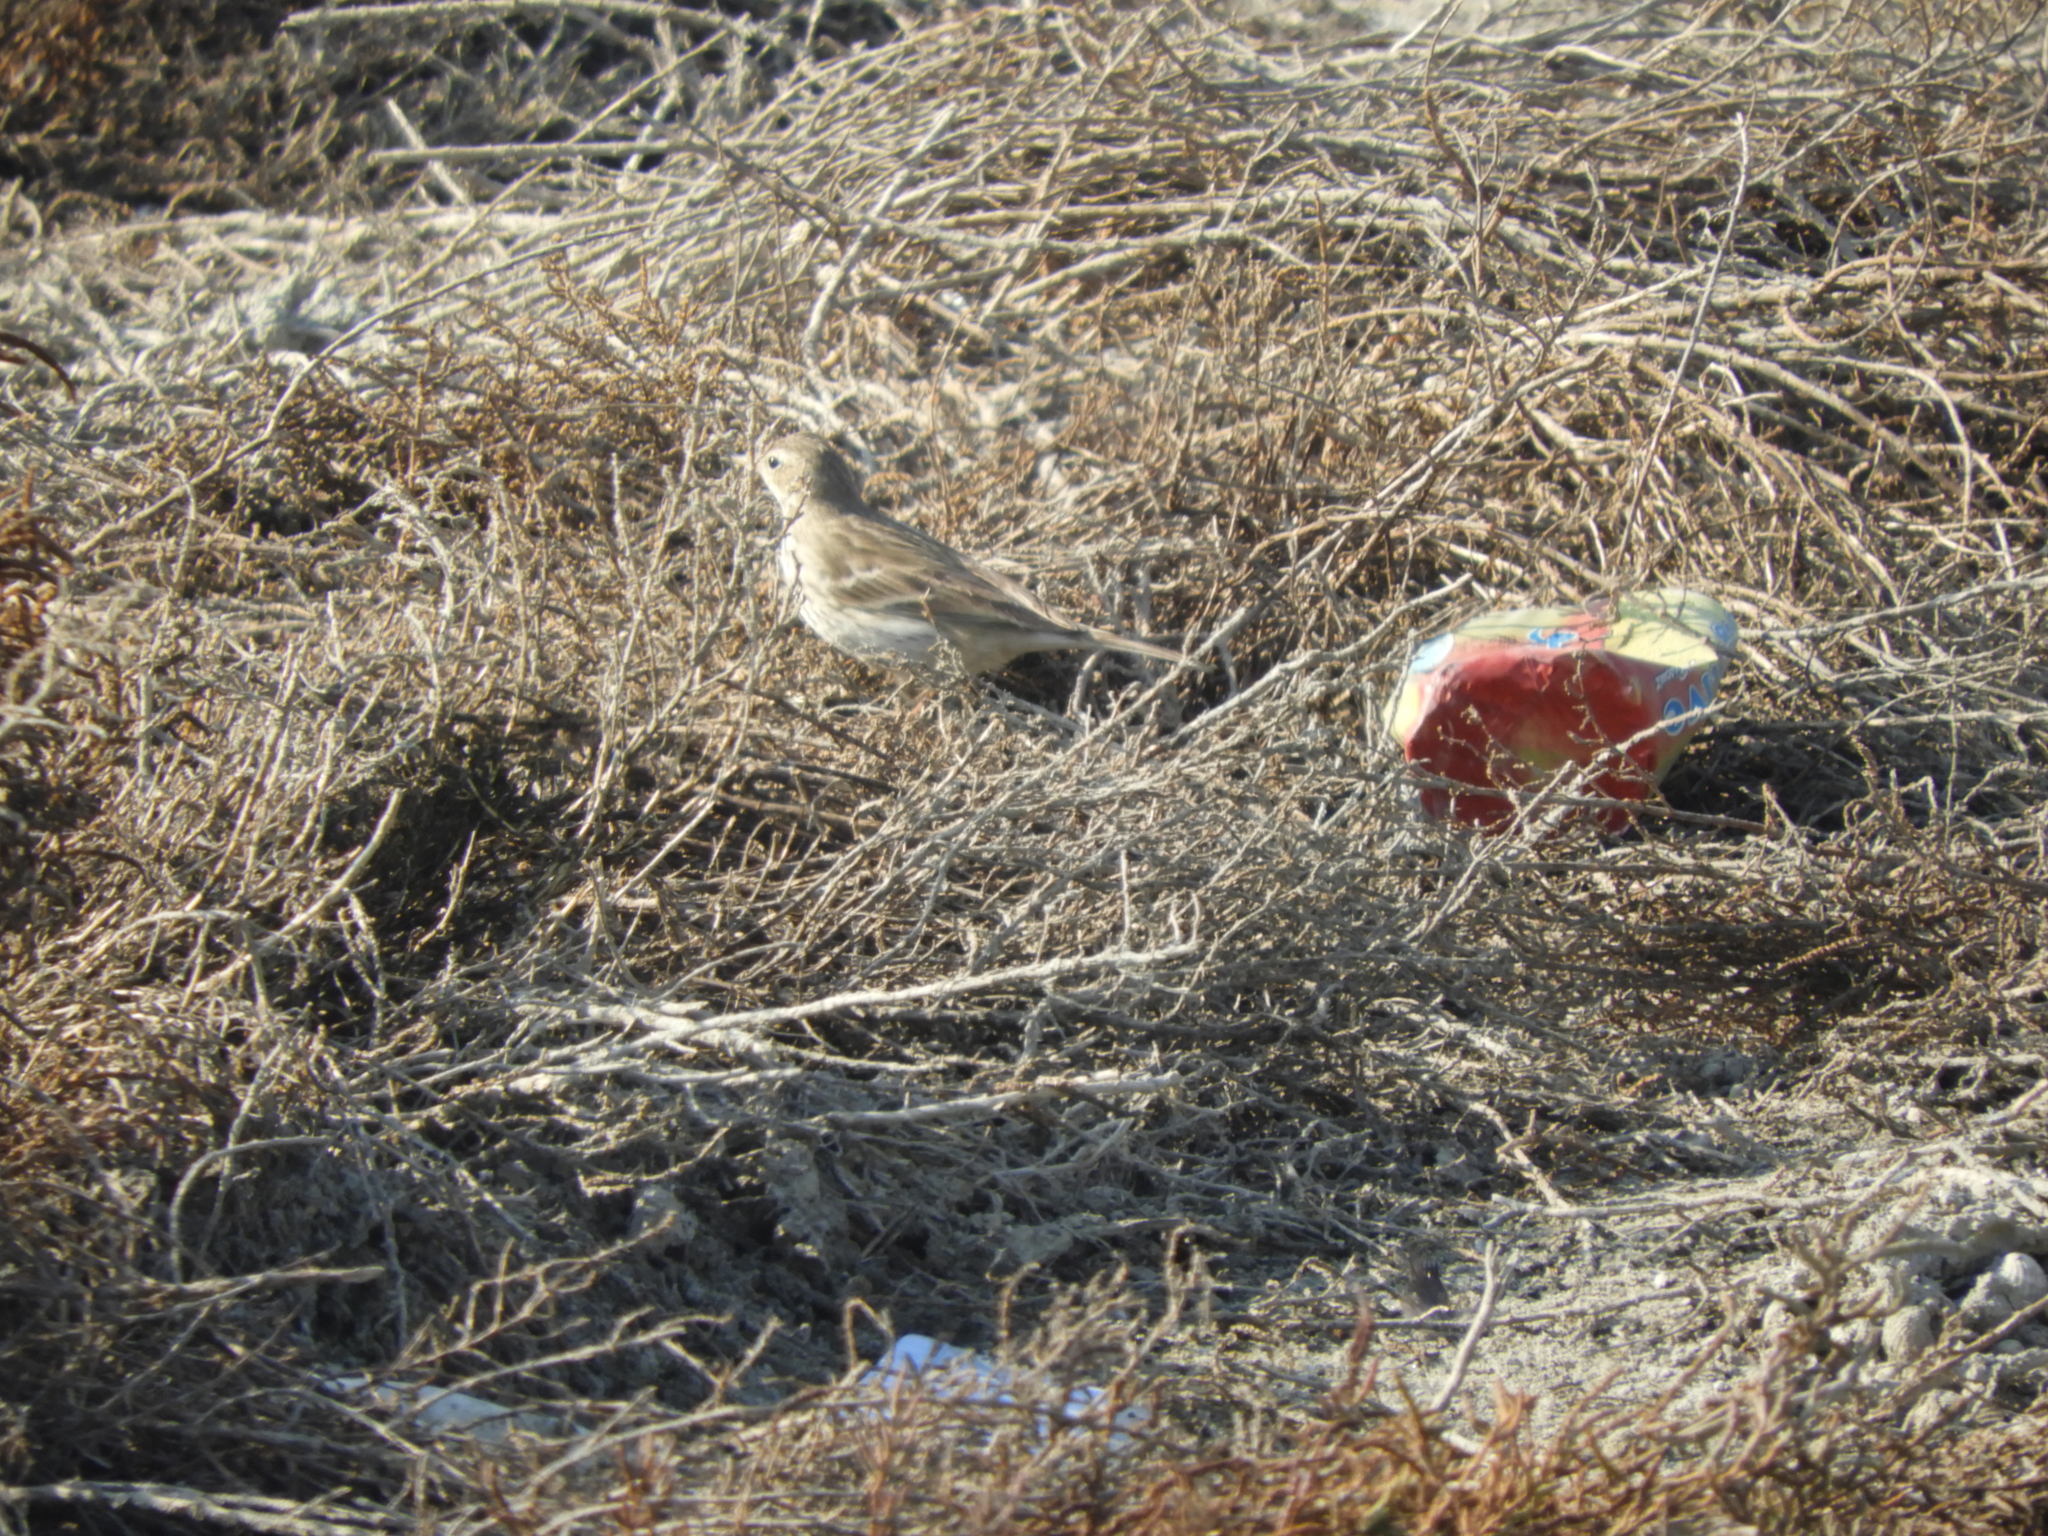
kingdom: Animalia
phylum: Chordata
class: Aves
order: Passeriformes
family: Motacillidae
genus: Anthus
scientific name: Anthus spinoletta
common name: Water pipit
